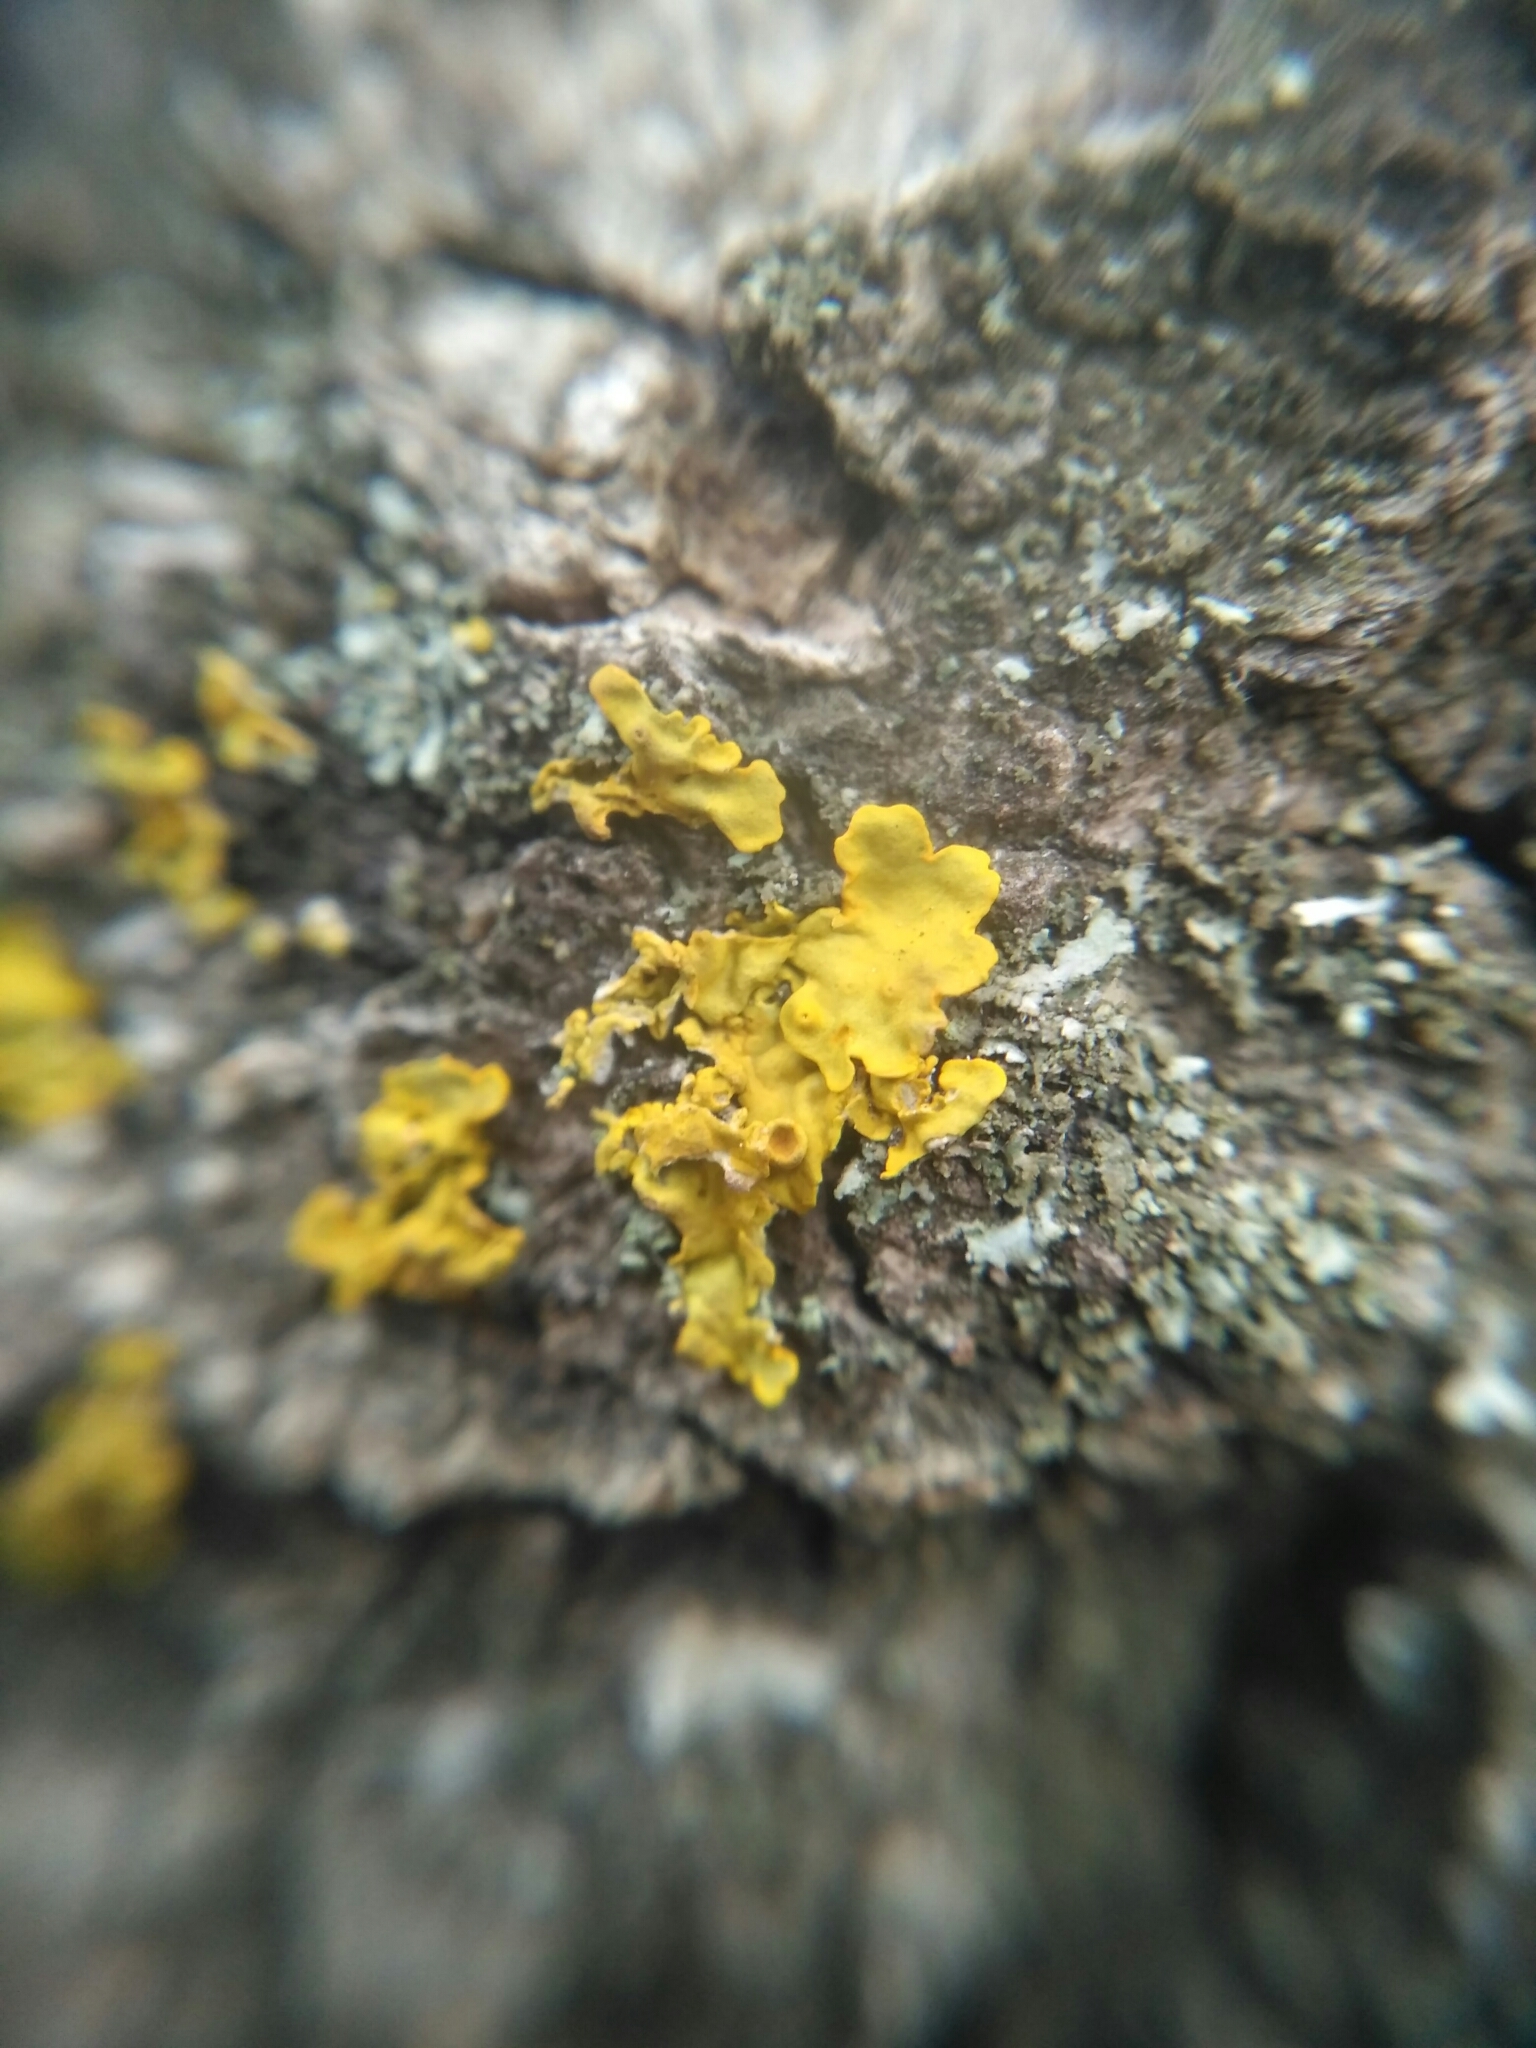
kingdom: Fungi
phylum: Ascomycota
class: Lecanoromycetes
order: Teloschistales
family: Teloschistaceae
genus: Xanthoria
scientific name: Xanthoria parietina
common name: Common orange lichen
